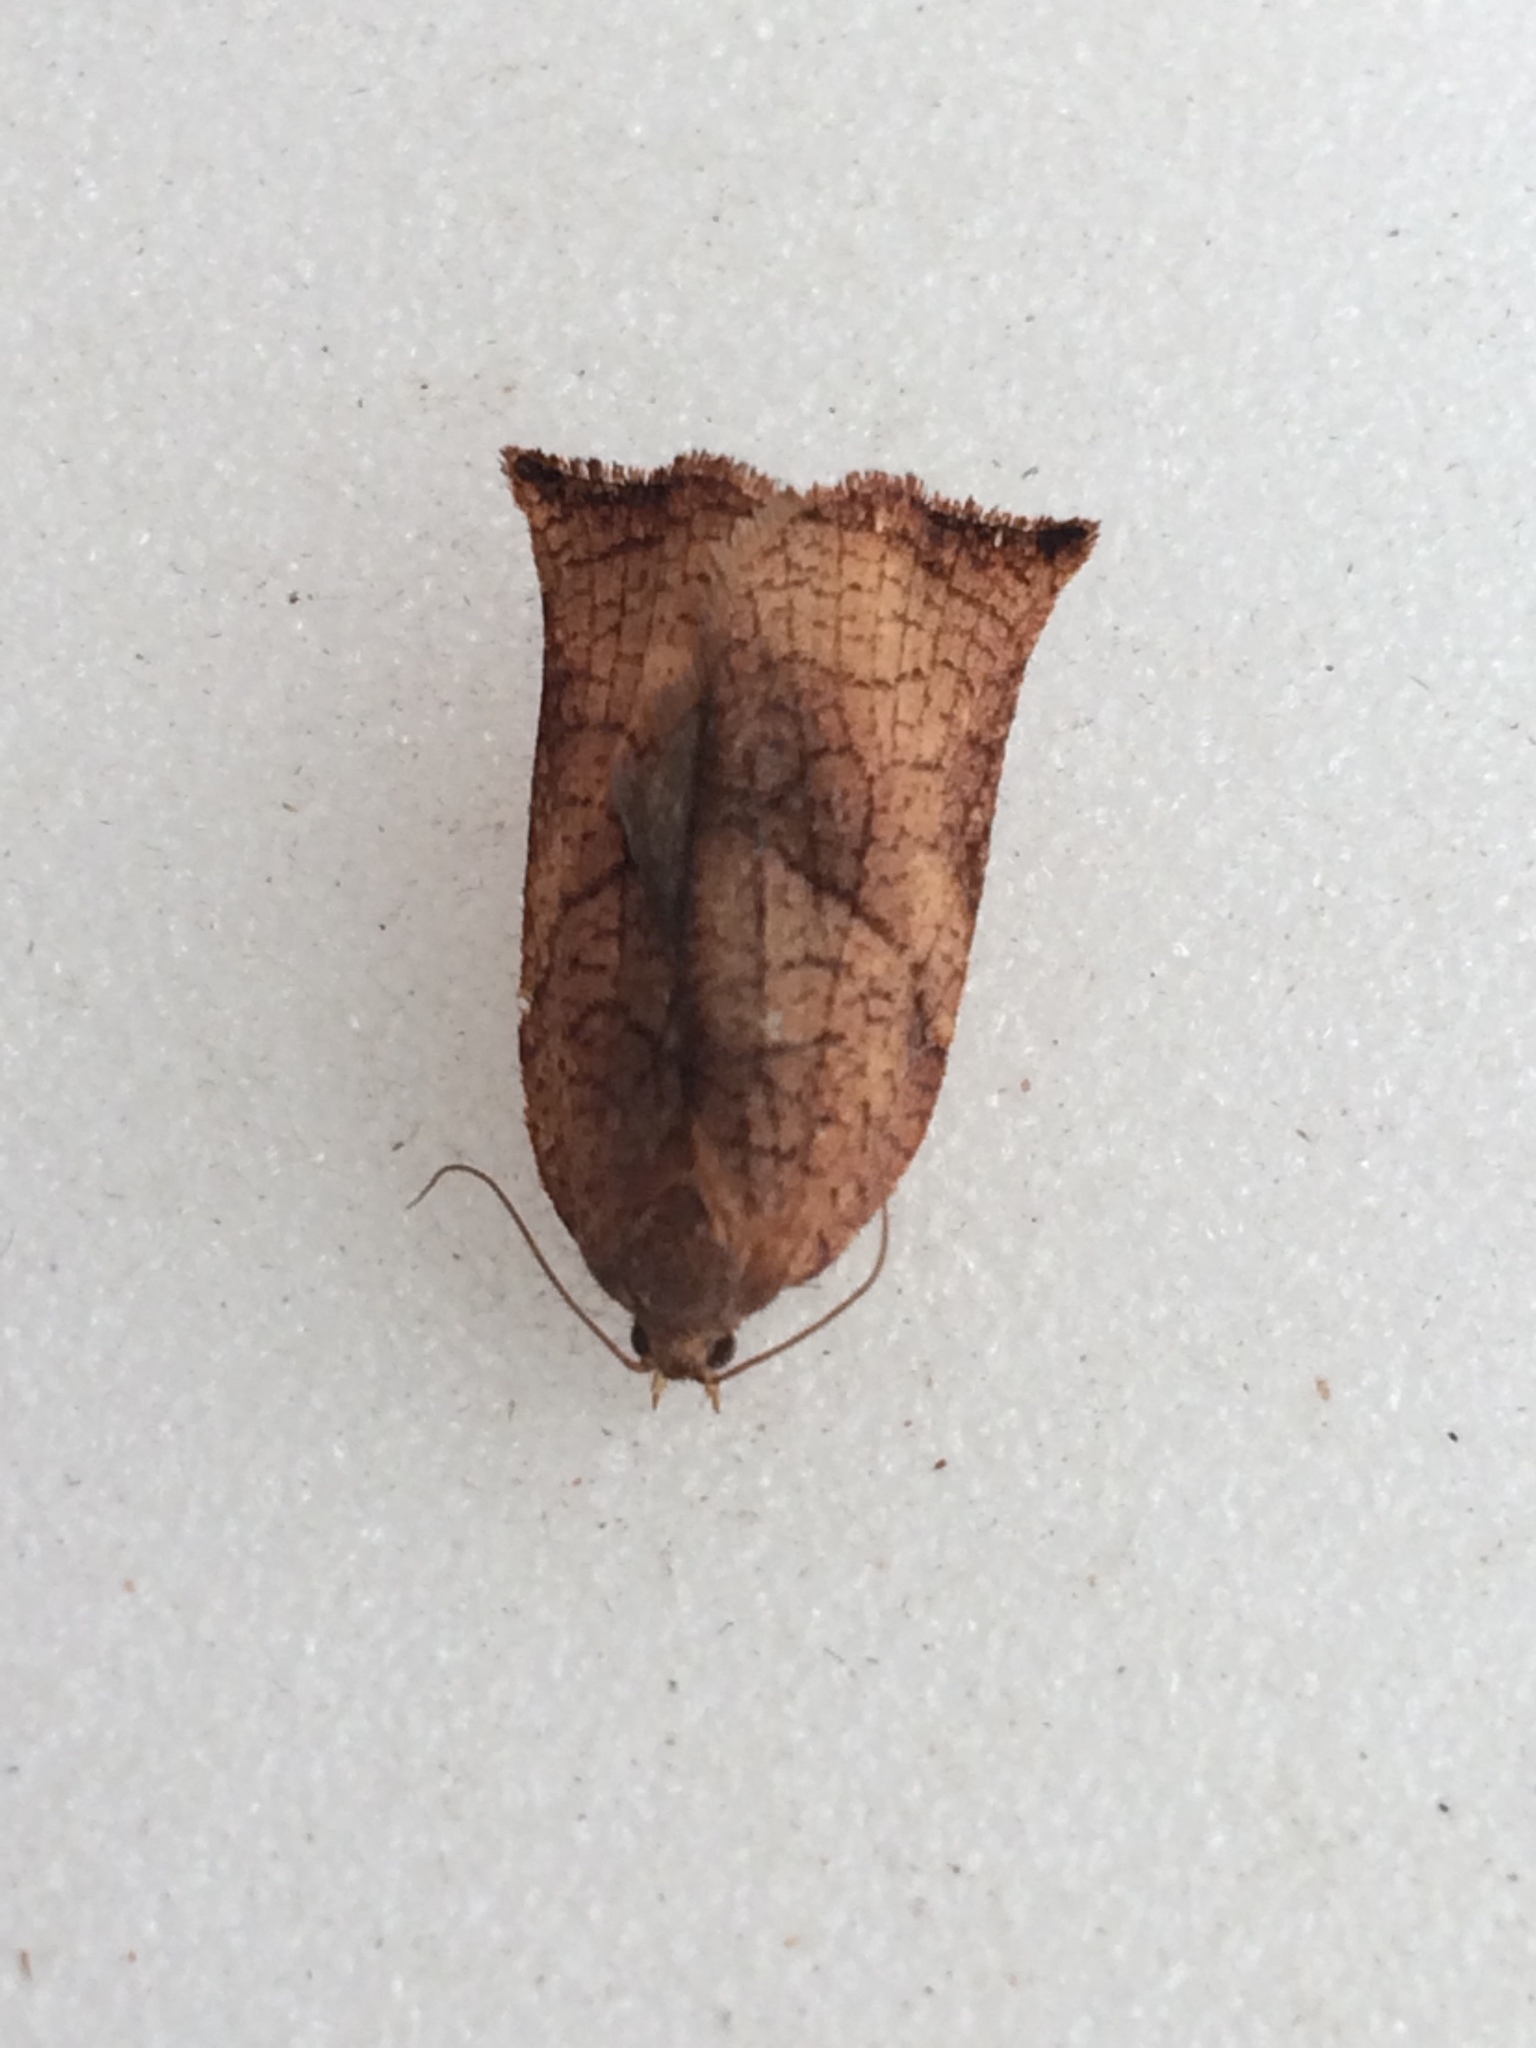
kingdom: Animalia
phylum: Arthropoda
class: Insecta
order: Lepidoptera
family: Tortricidae
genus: Archips
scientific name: Archips podana
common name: Large fruit-tree tortrix
